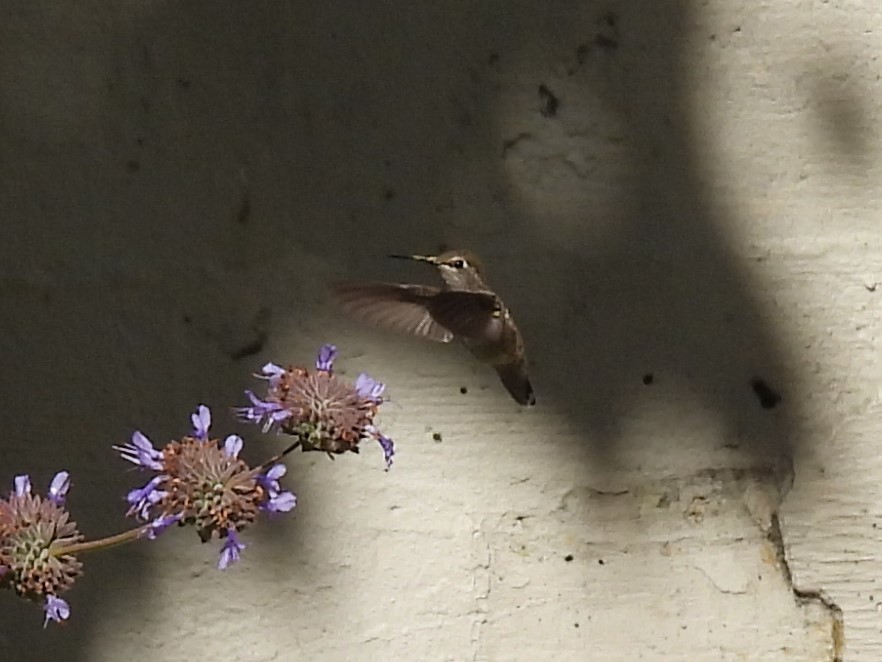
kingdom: Animalia
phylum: Chordata
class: Aves
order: Apodiformes
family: Trochilidae
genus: Calypte
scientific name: Calypte anna
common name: Anna's hummingbird
